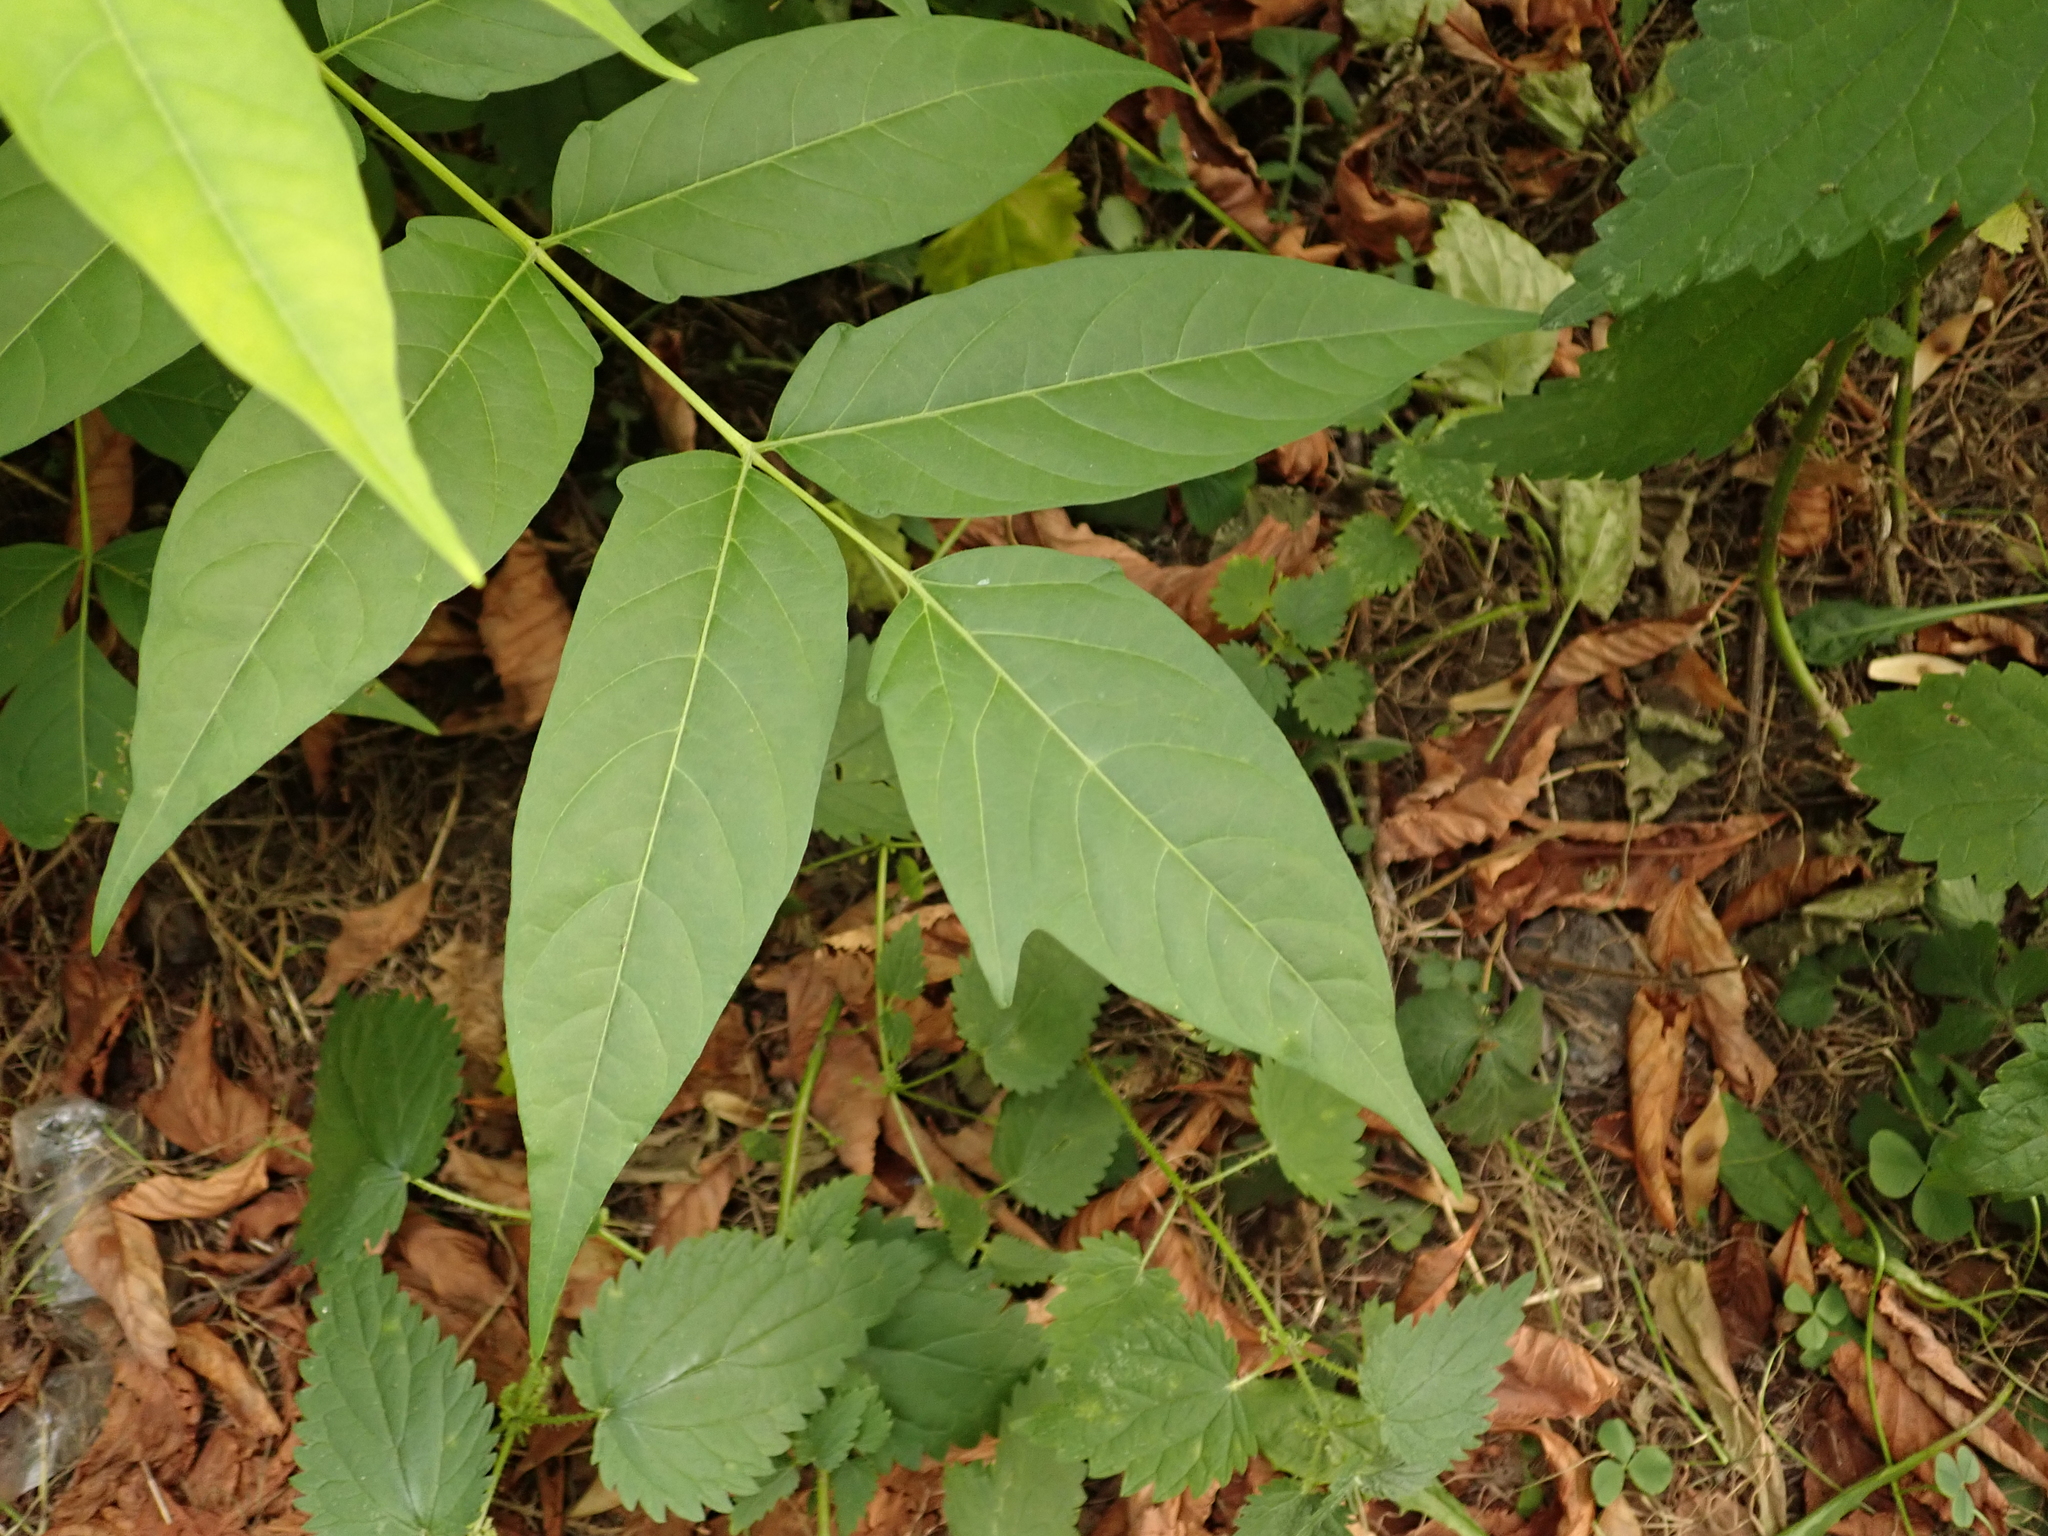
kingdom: Plantae
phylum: Tracheophyta
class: Magnoliopsida
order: Sapindales
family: Simaroubaceae
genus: Ailanthus
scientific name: Ailanthus altissima
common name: Tree-of-heaven
